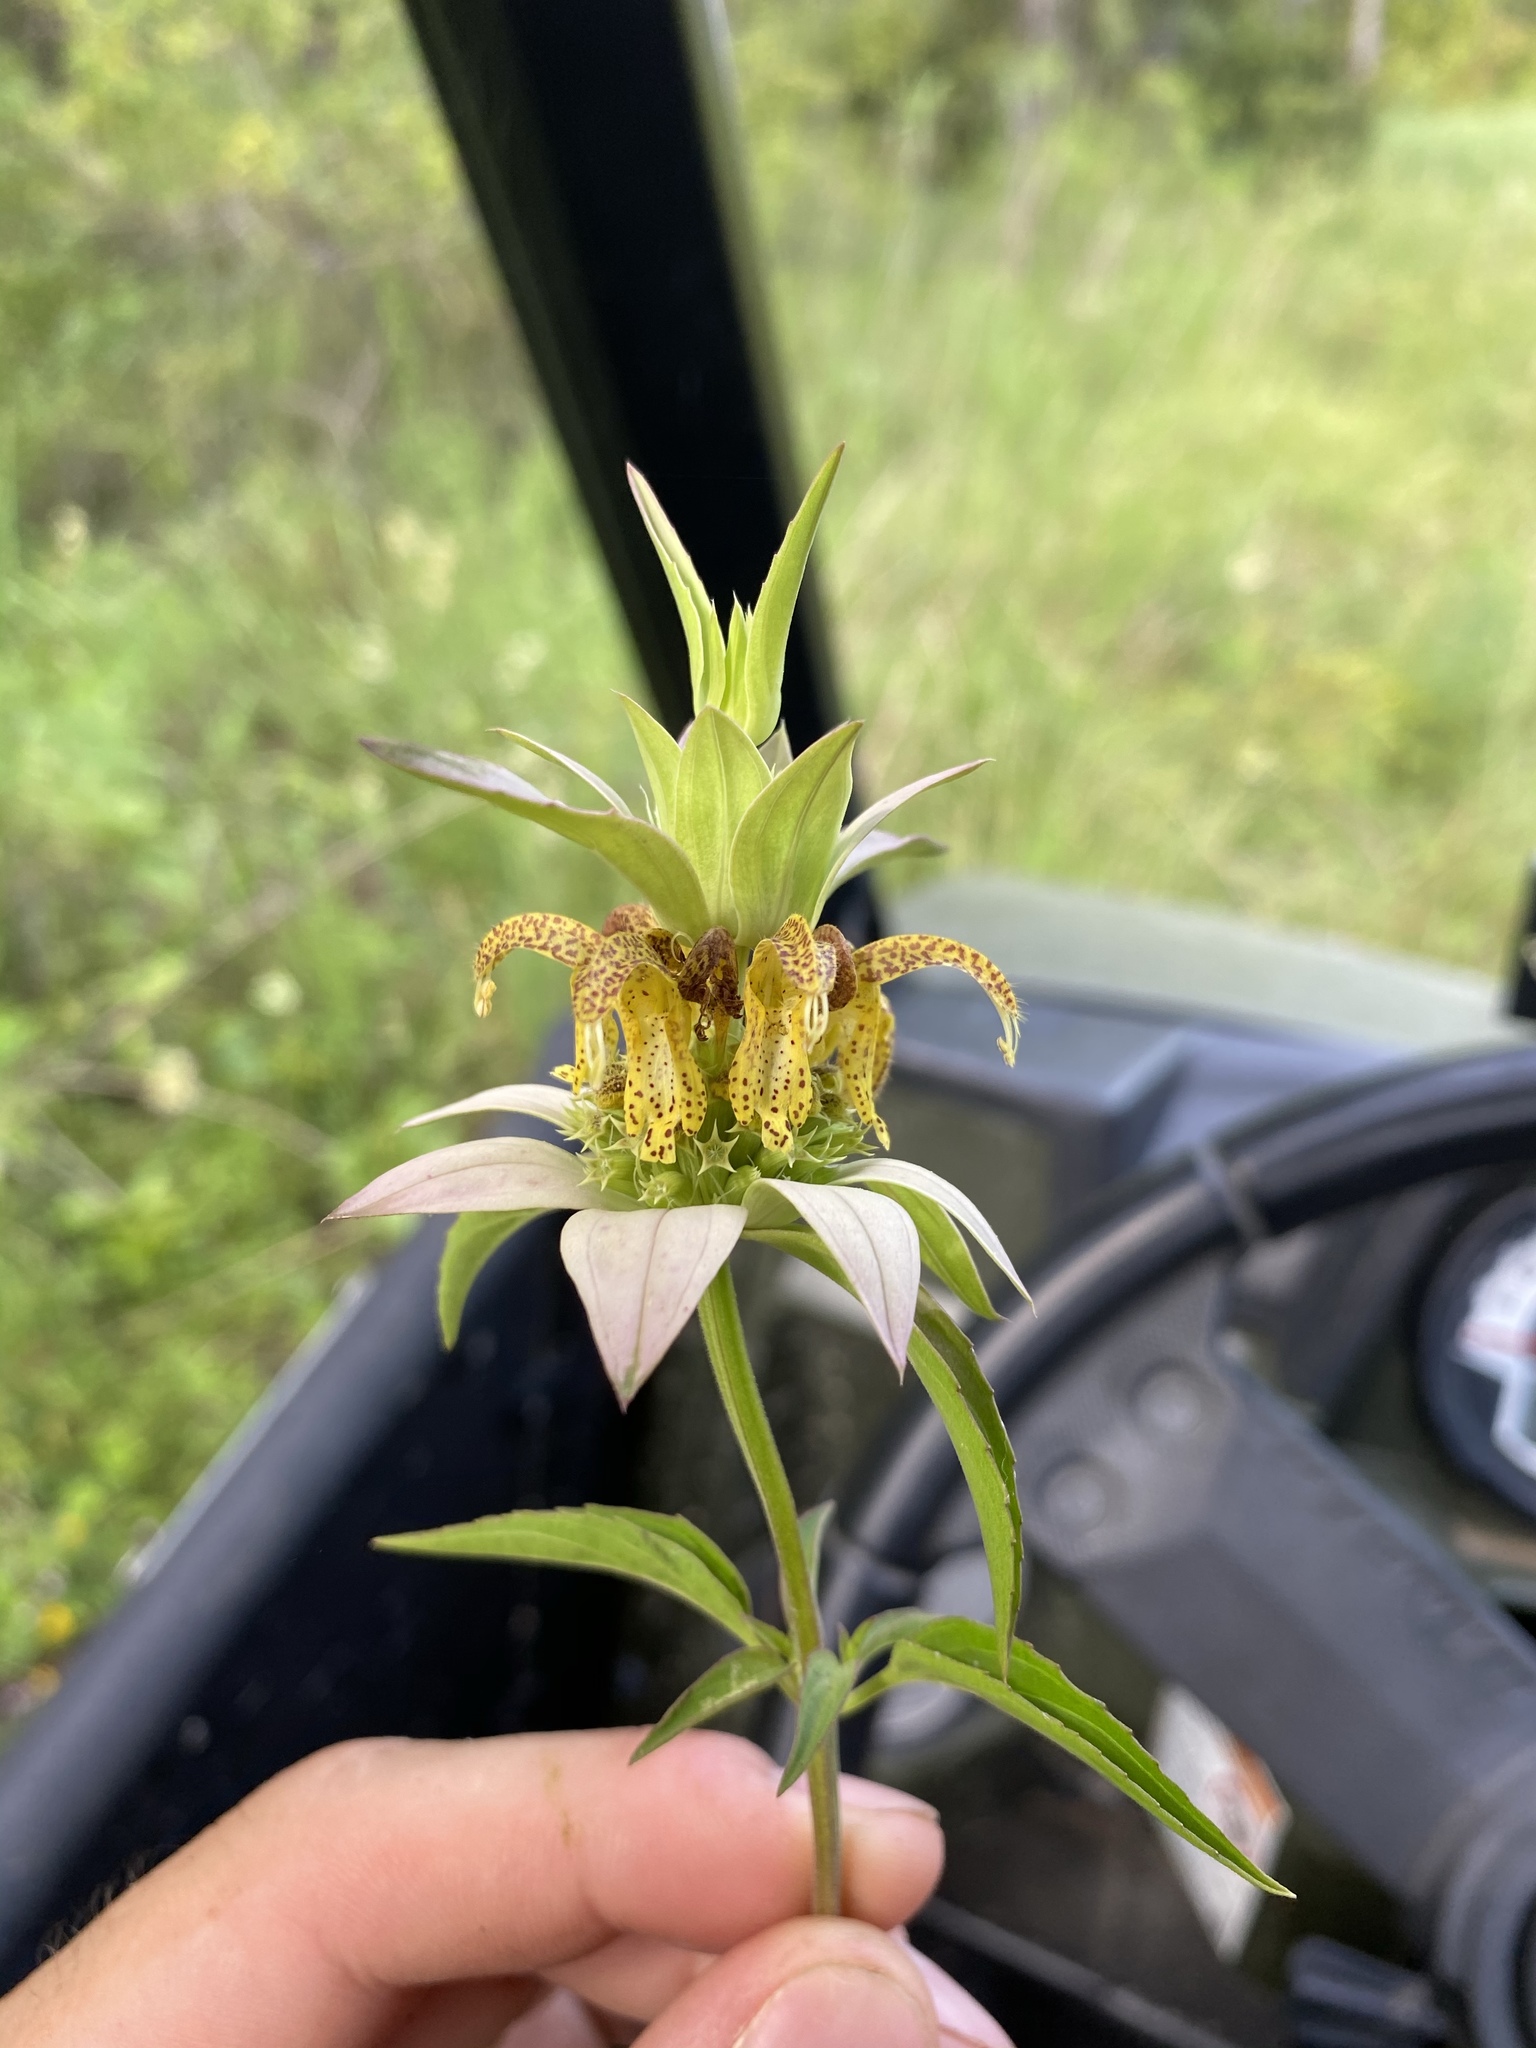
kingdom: Plantae
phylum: Tracheophyta
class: Magnoliopsida
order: Lamiales
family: Lamiaceae
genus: Monarda
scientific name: Monarda punctata
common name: Dotted monarda
